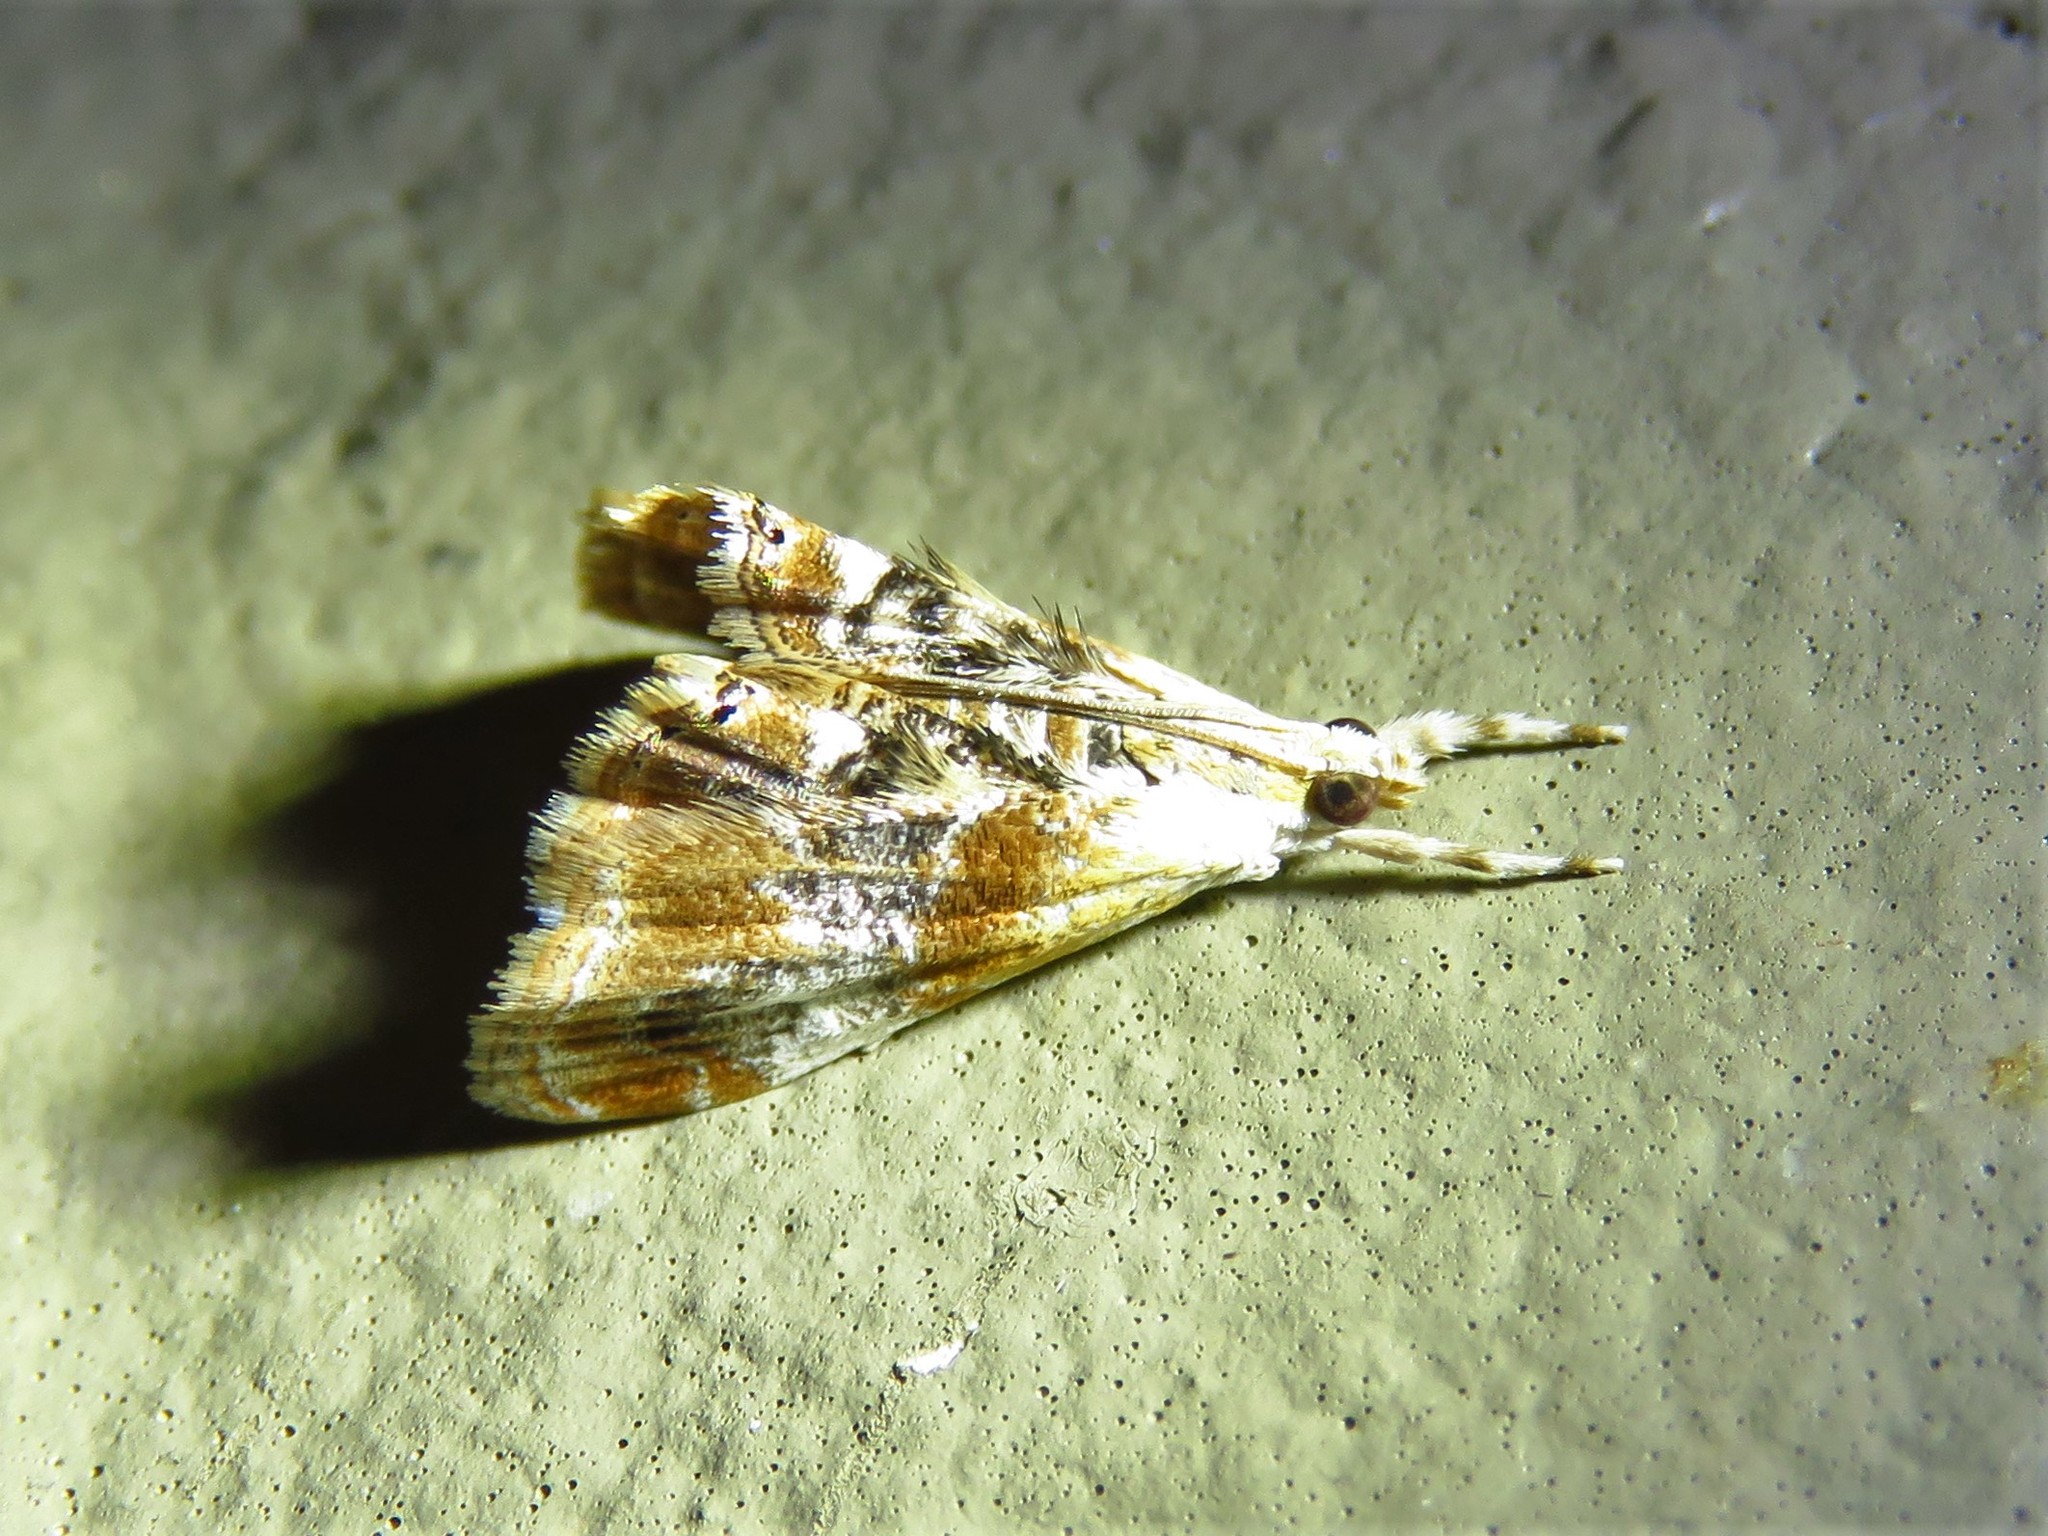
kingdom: Animalia
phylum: Arthropoda
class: Insecta
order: Lepidoptera
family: Crambidae
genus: Dicymolomia
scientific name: Dicymolomia julianalis
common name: Julia's dicymolomia moth
